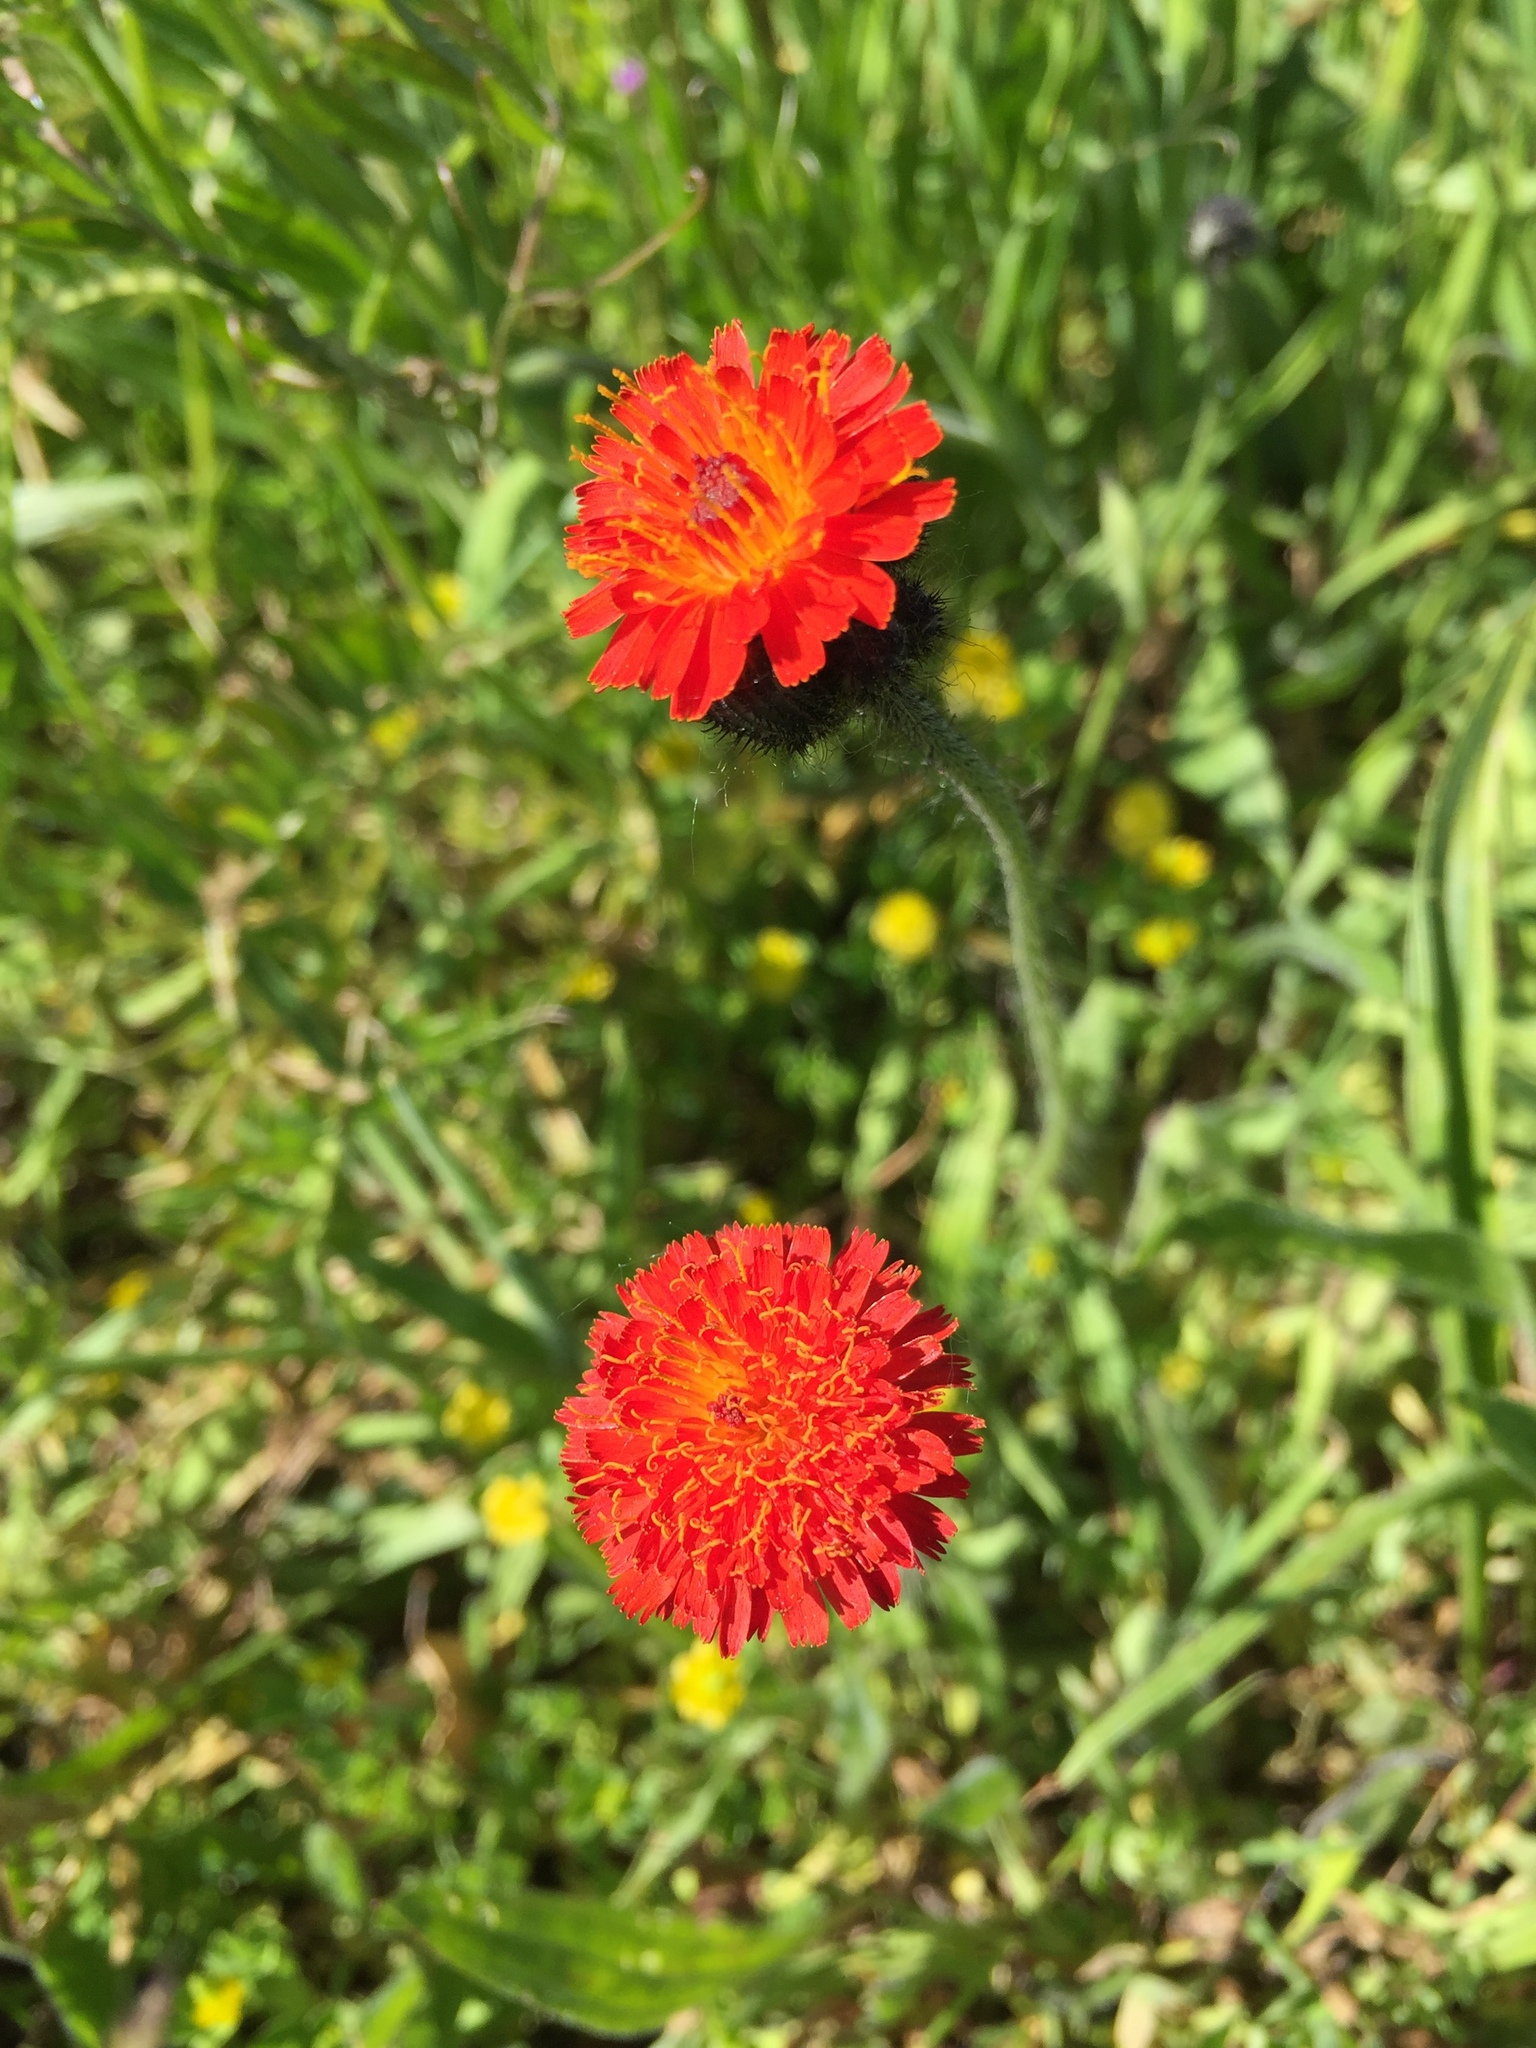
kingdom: Plantae
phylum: Tracheophyta
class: Magnoliopsida
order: Asterales
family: Asteraceae
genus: Pilosella
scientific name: Pilosella aurantiaca
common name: Fox-and-cubs
